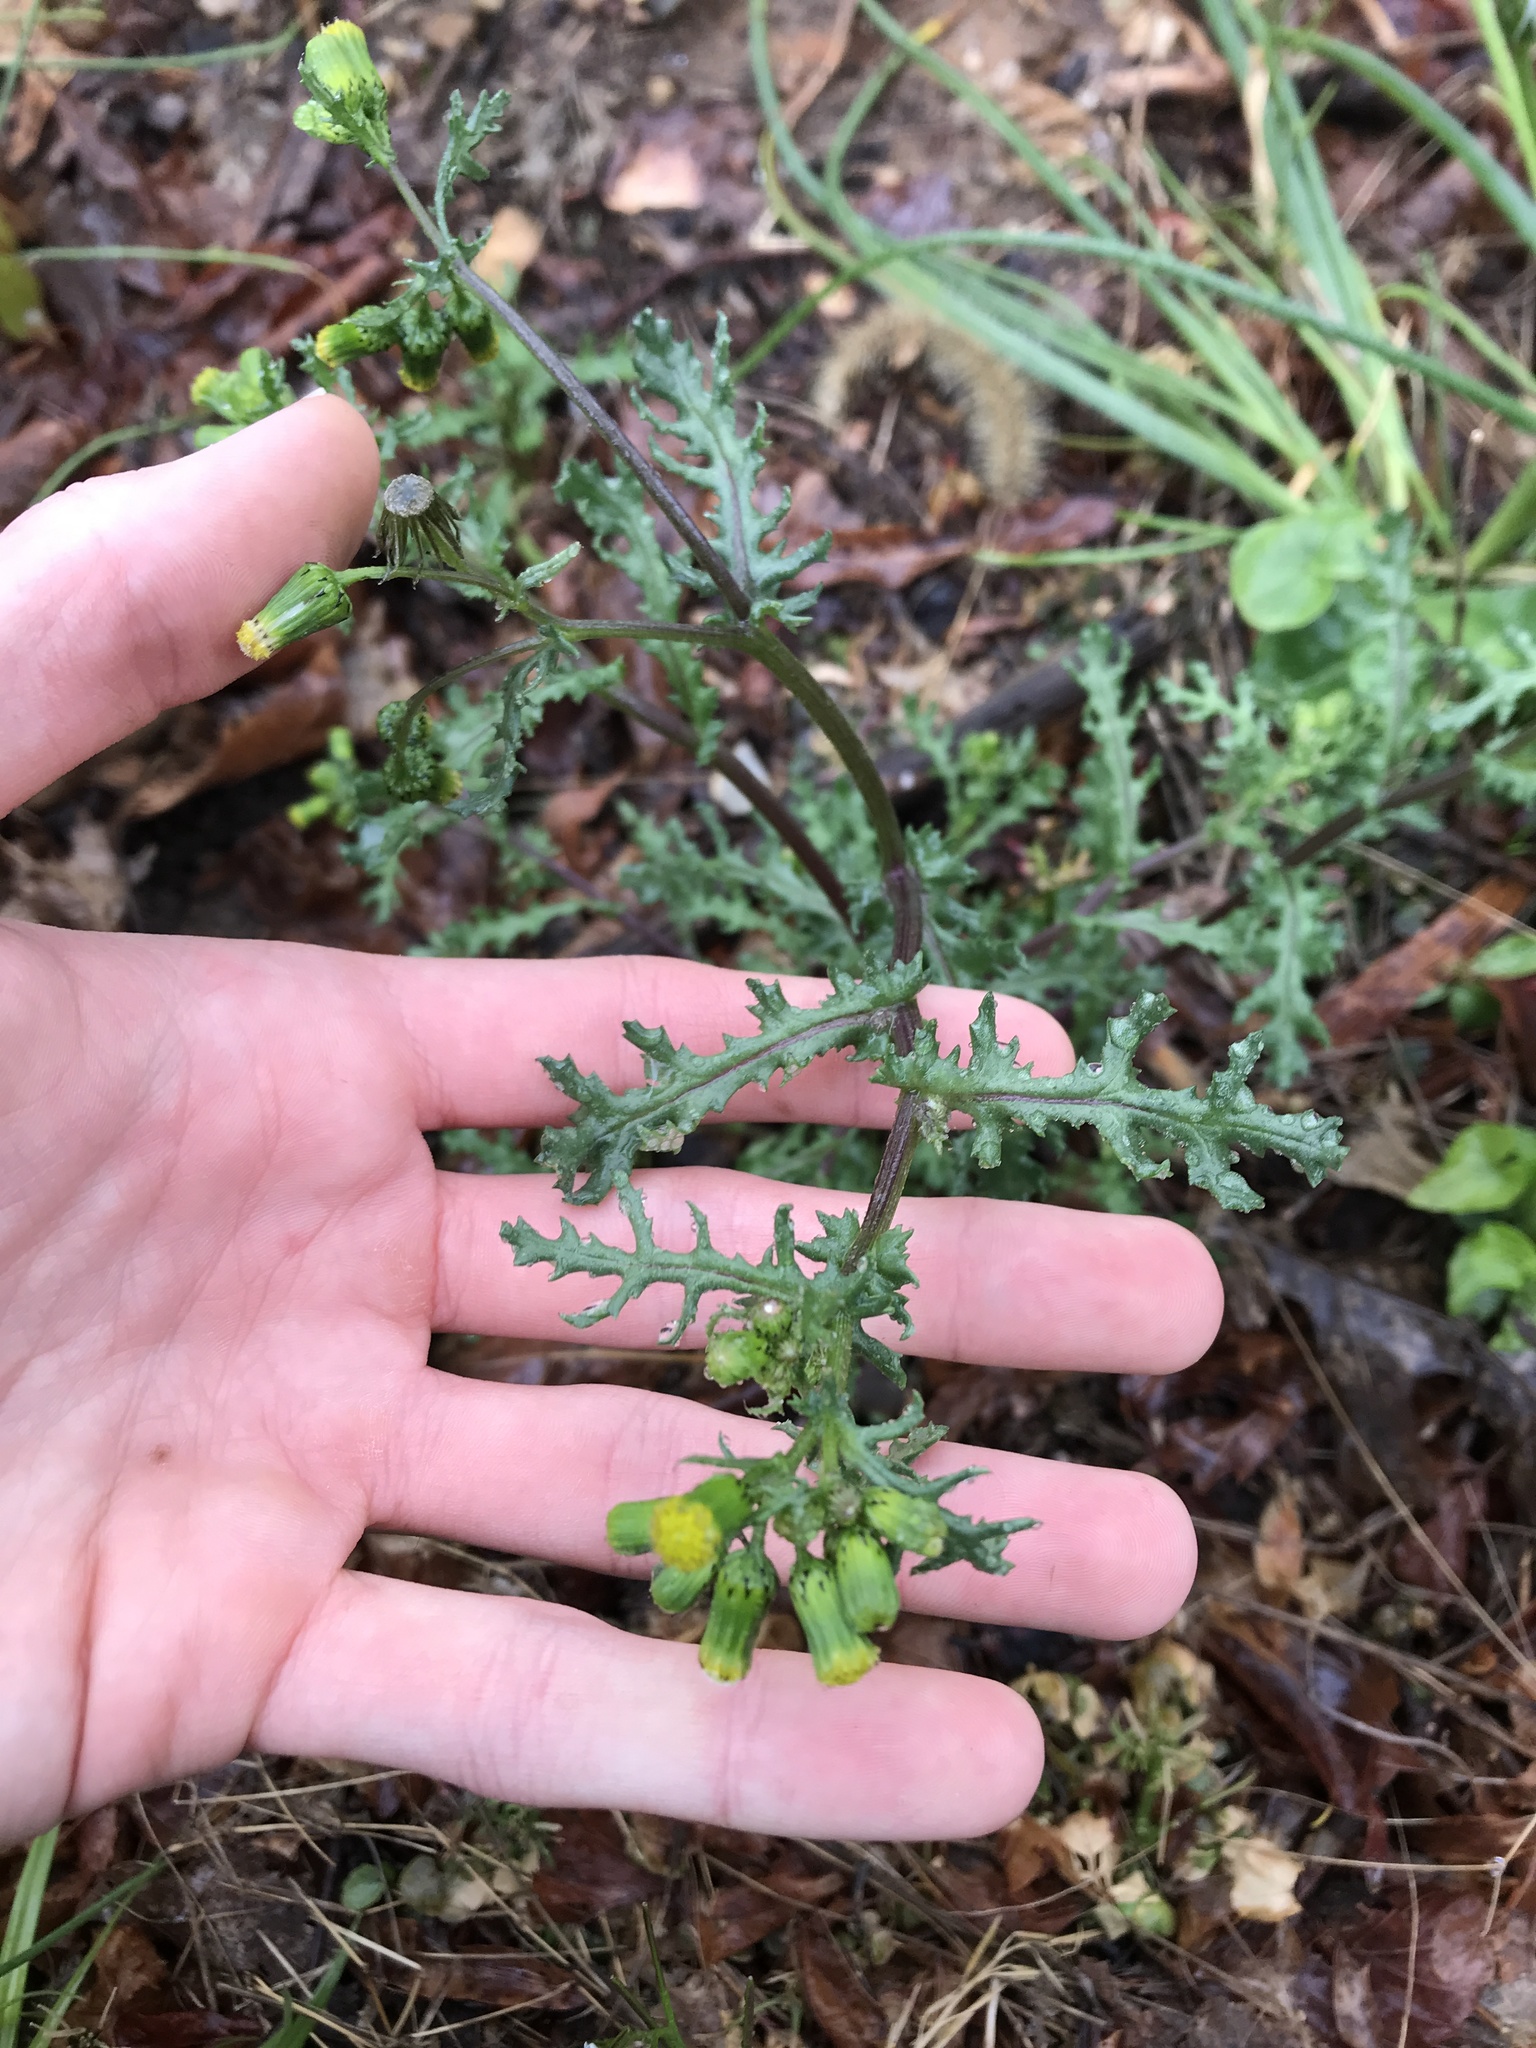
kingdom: Plantae
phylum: Tracheophyta
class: Magnoliopsida
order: Asterales
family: Asteraceae
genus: Senecio
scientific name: Senecio vulgaris
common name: Old-man-in-the-spring
